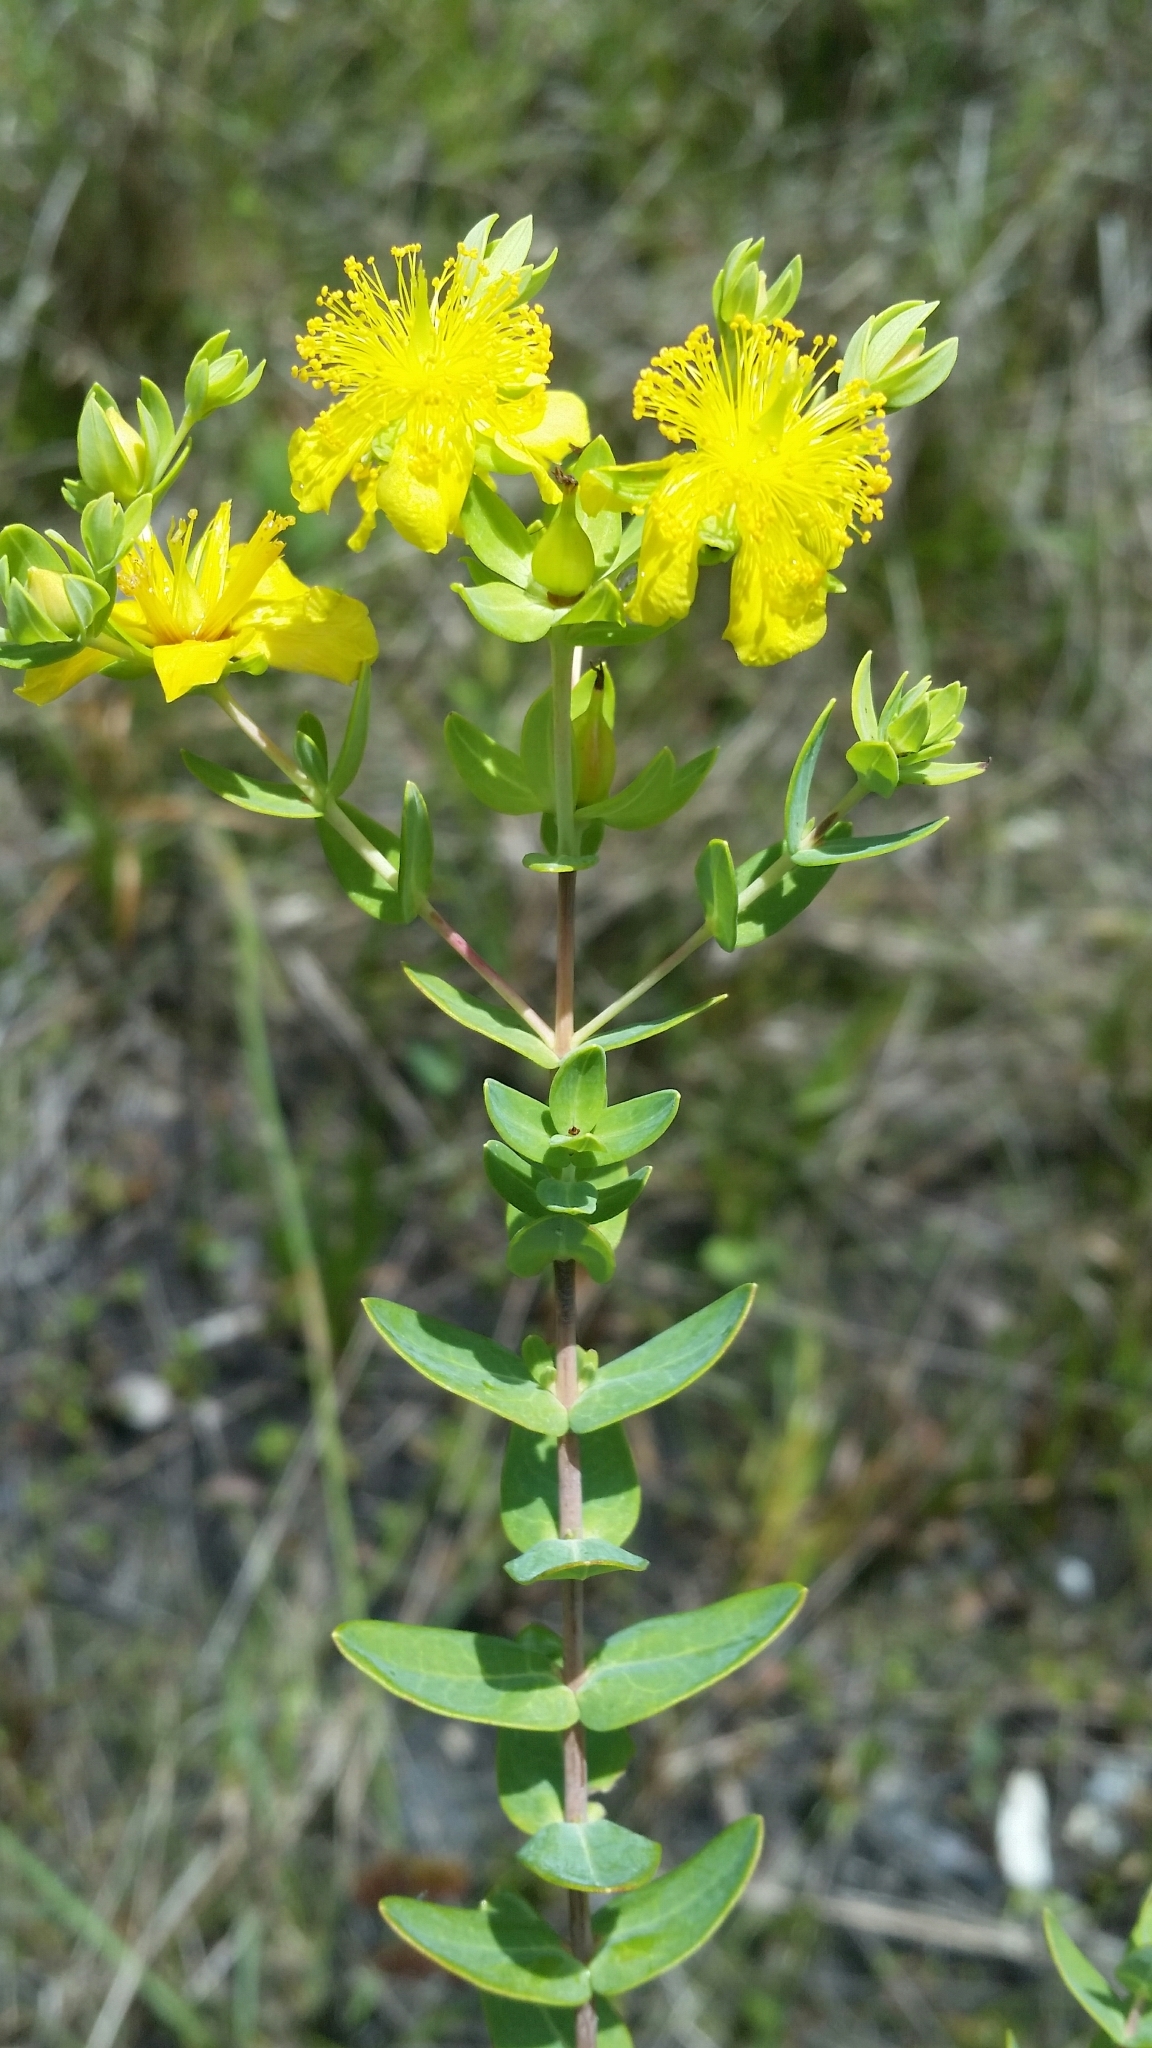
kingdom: Plantae
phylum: Tracheophyta
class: Magnoliopsida
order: Malpighiales
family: Hypericaceae
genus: Hypericum
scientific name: Hypericum myrtifolium
